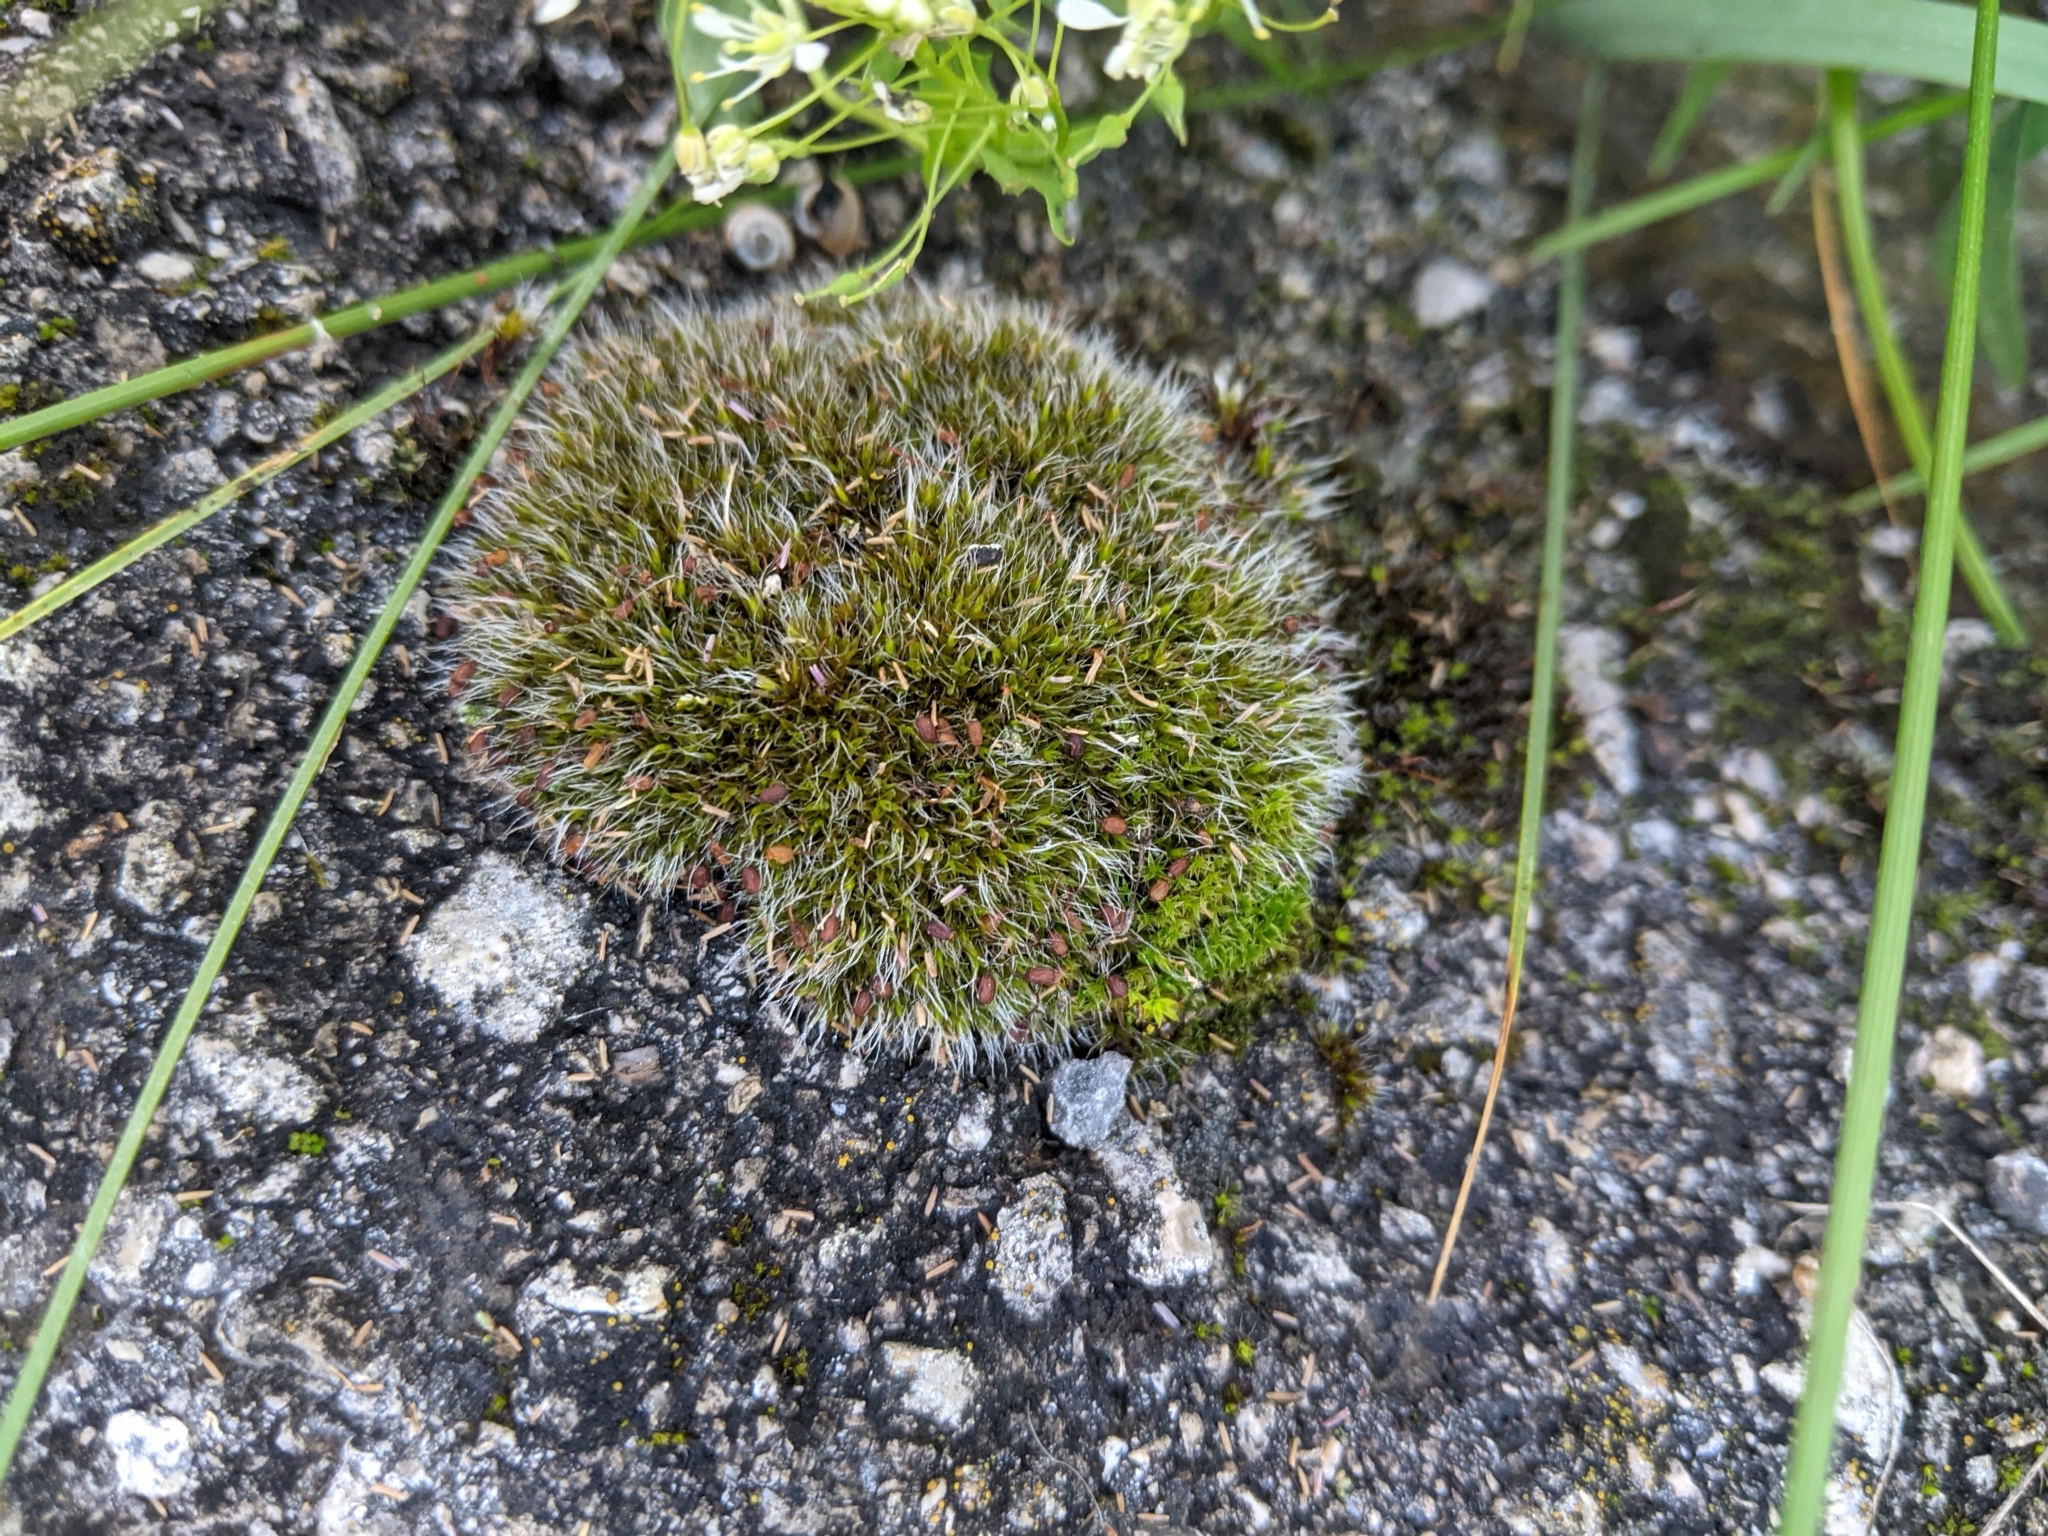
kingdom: Plantae
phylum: Bryophyta
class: Bryopsida
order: Grimmiales
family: Grimmiaceae
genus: Grimmia
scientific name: Grimmia pulvinata
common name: Grey-cushioned grimmia
